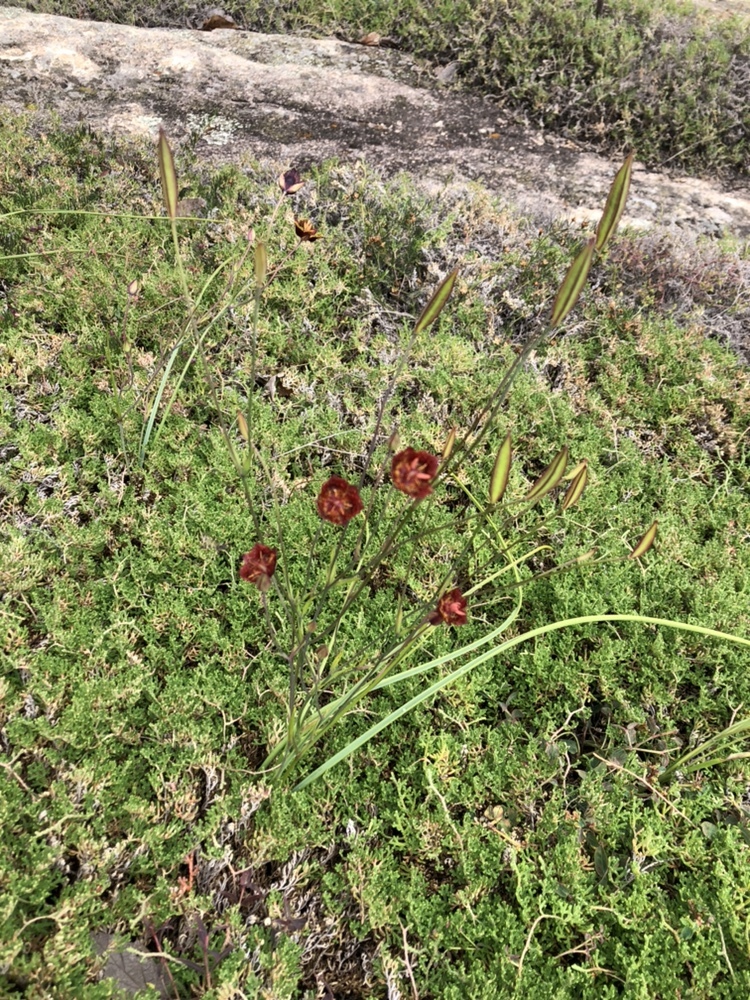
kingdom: Plantae
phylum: Tracheophyta
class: Liliopsida
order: Liliales
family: Liliaceae
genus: Calochortus
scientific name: Calochortus pringlei
